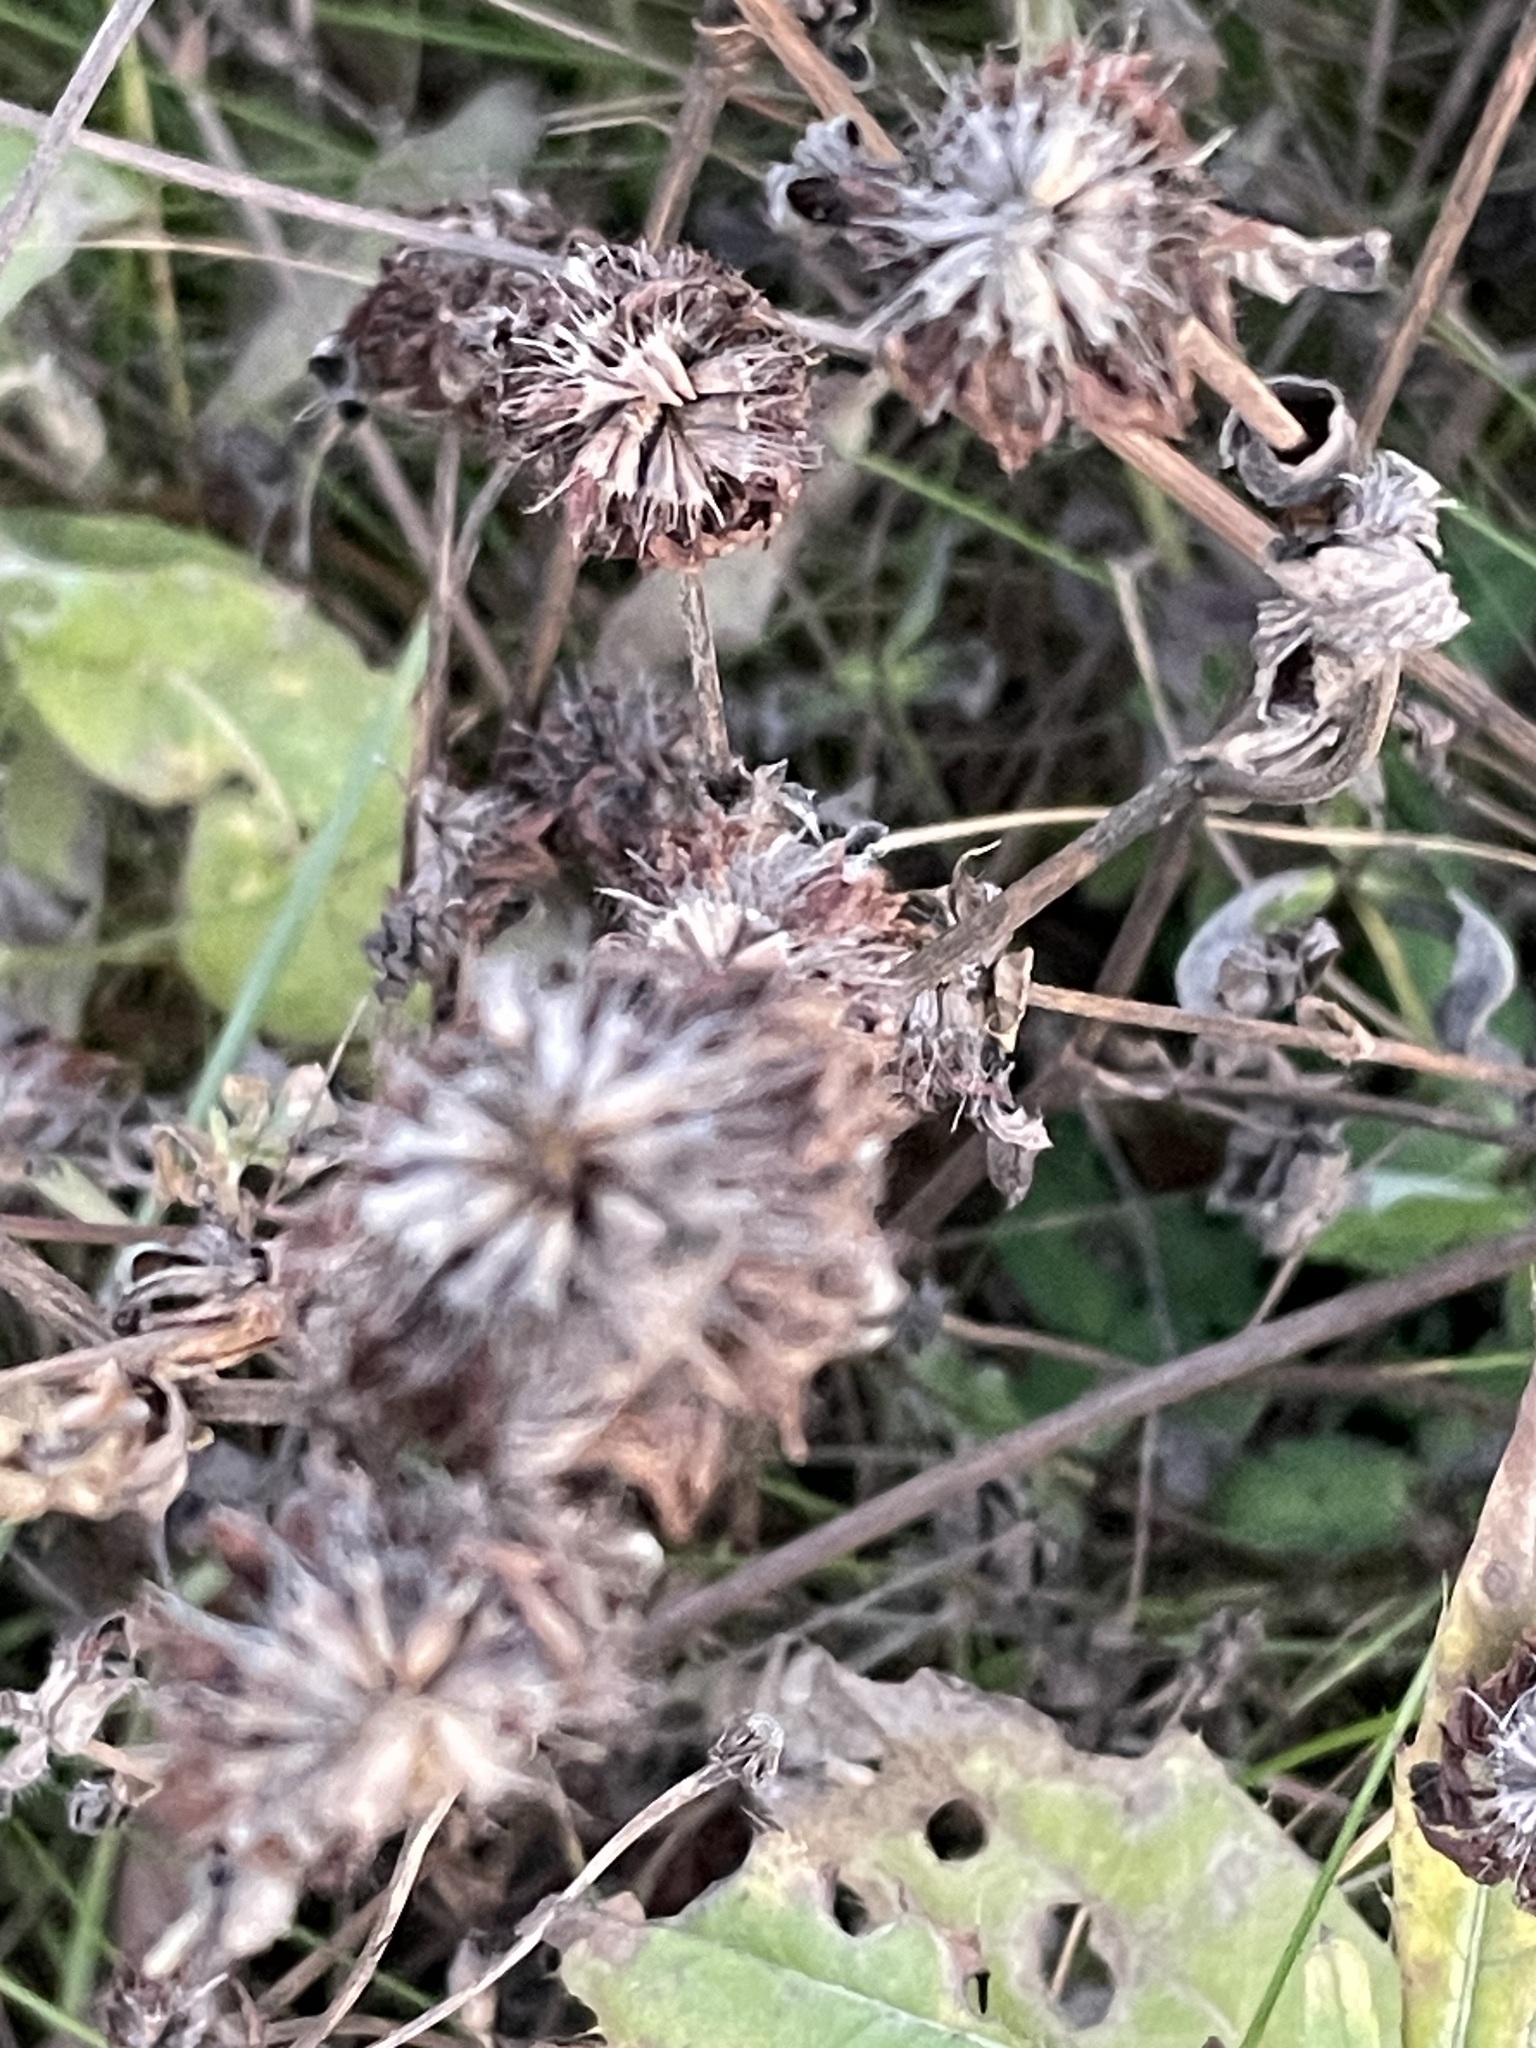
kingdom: Plantae
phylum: Tracheophyta
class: Magnoliopsida
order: Fabales
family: Fabaceae
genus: Trifolium
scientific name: Trifolium pratense
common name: Red clover
